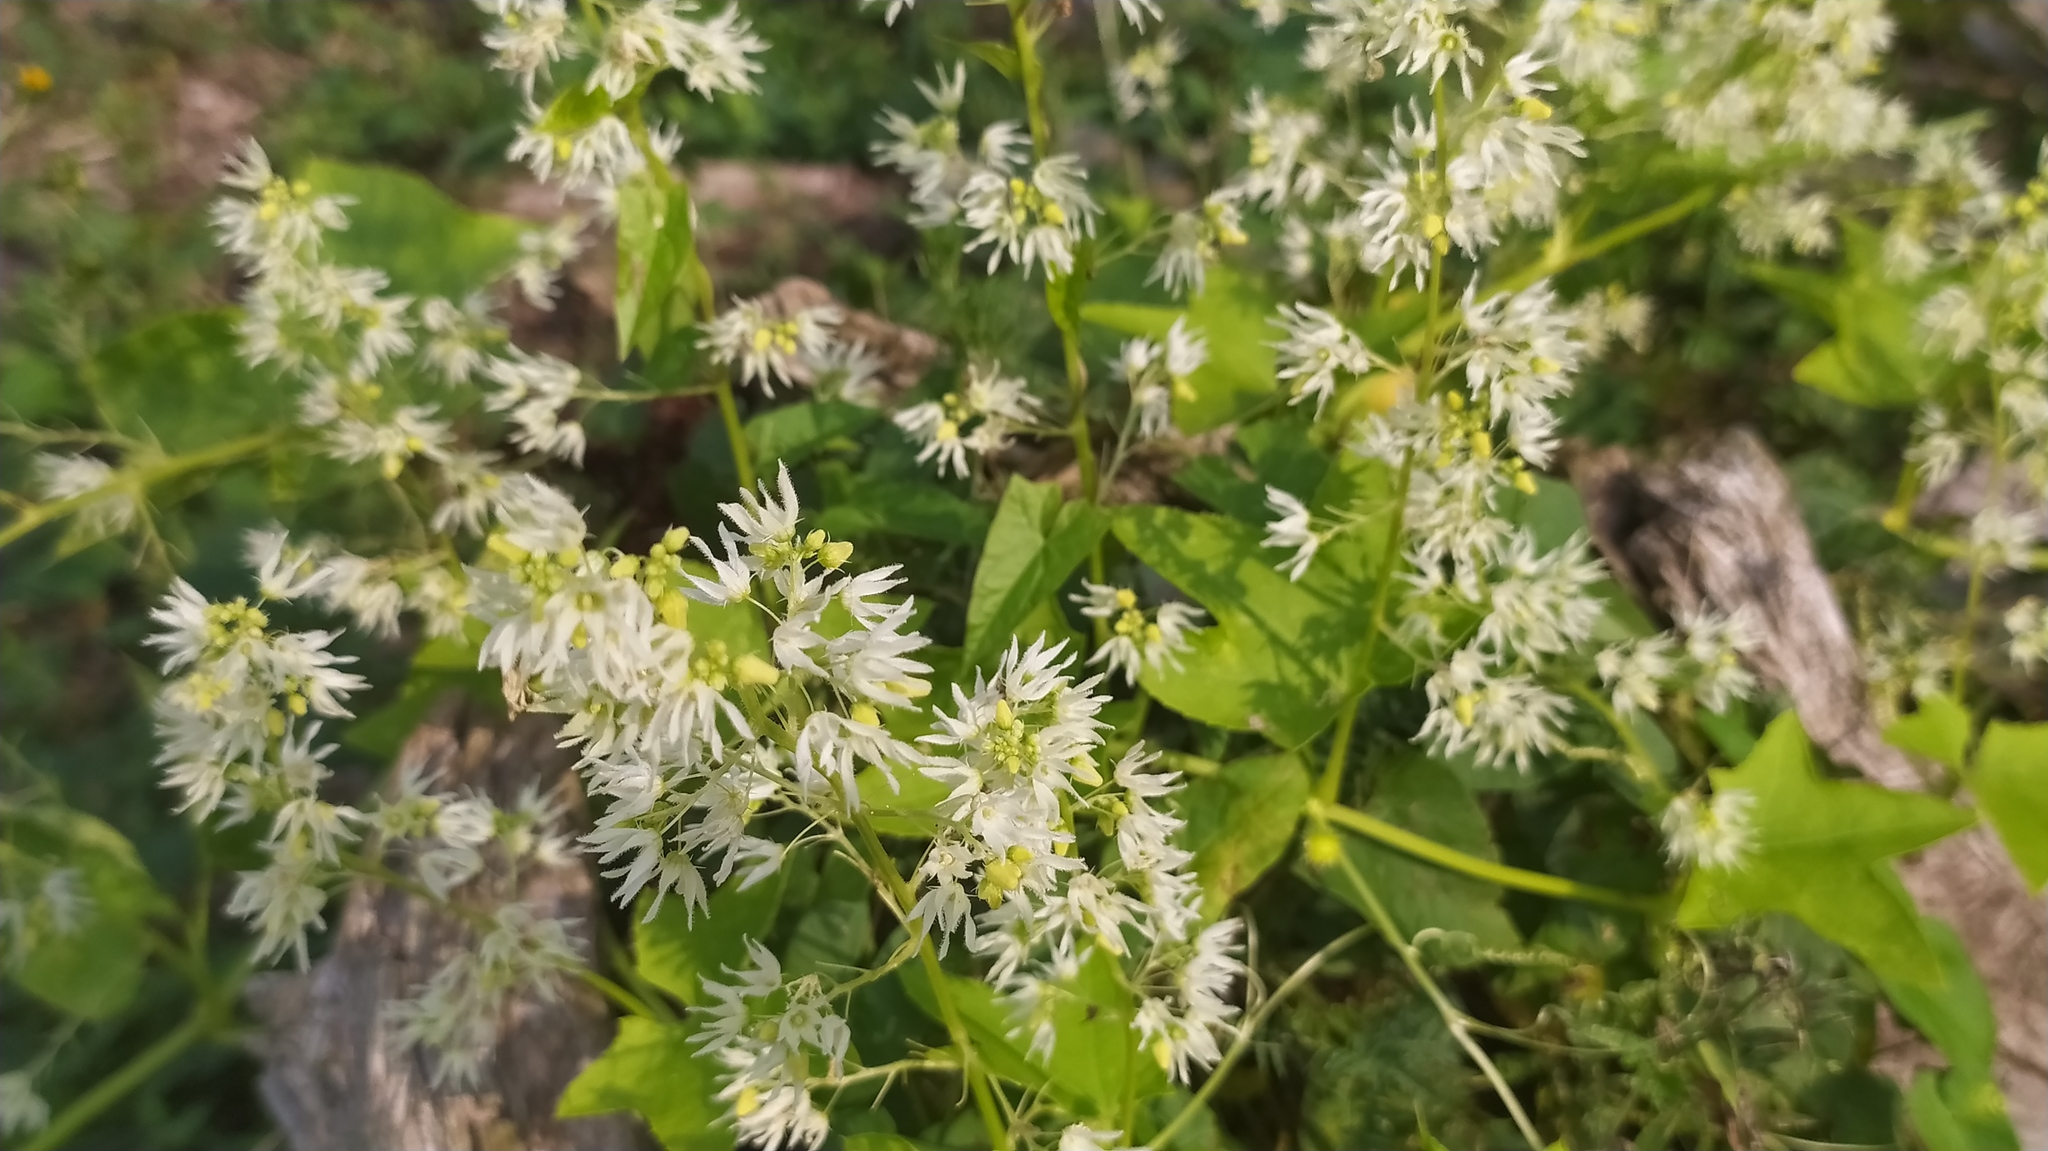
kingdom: Plantae
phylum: Tracheophyta
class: Magnoliopsida
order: Cucurbitales
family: Cucurbitaceae
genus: Echinocystis
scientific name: Echinocystis lobata
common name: Wild cucumber
